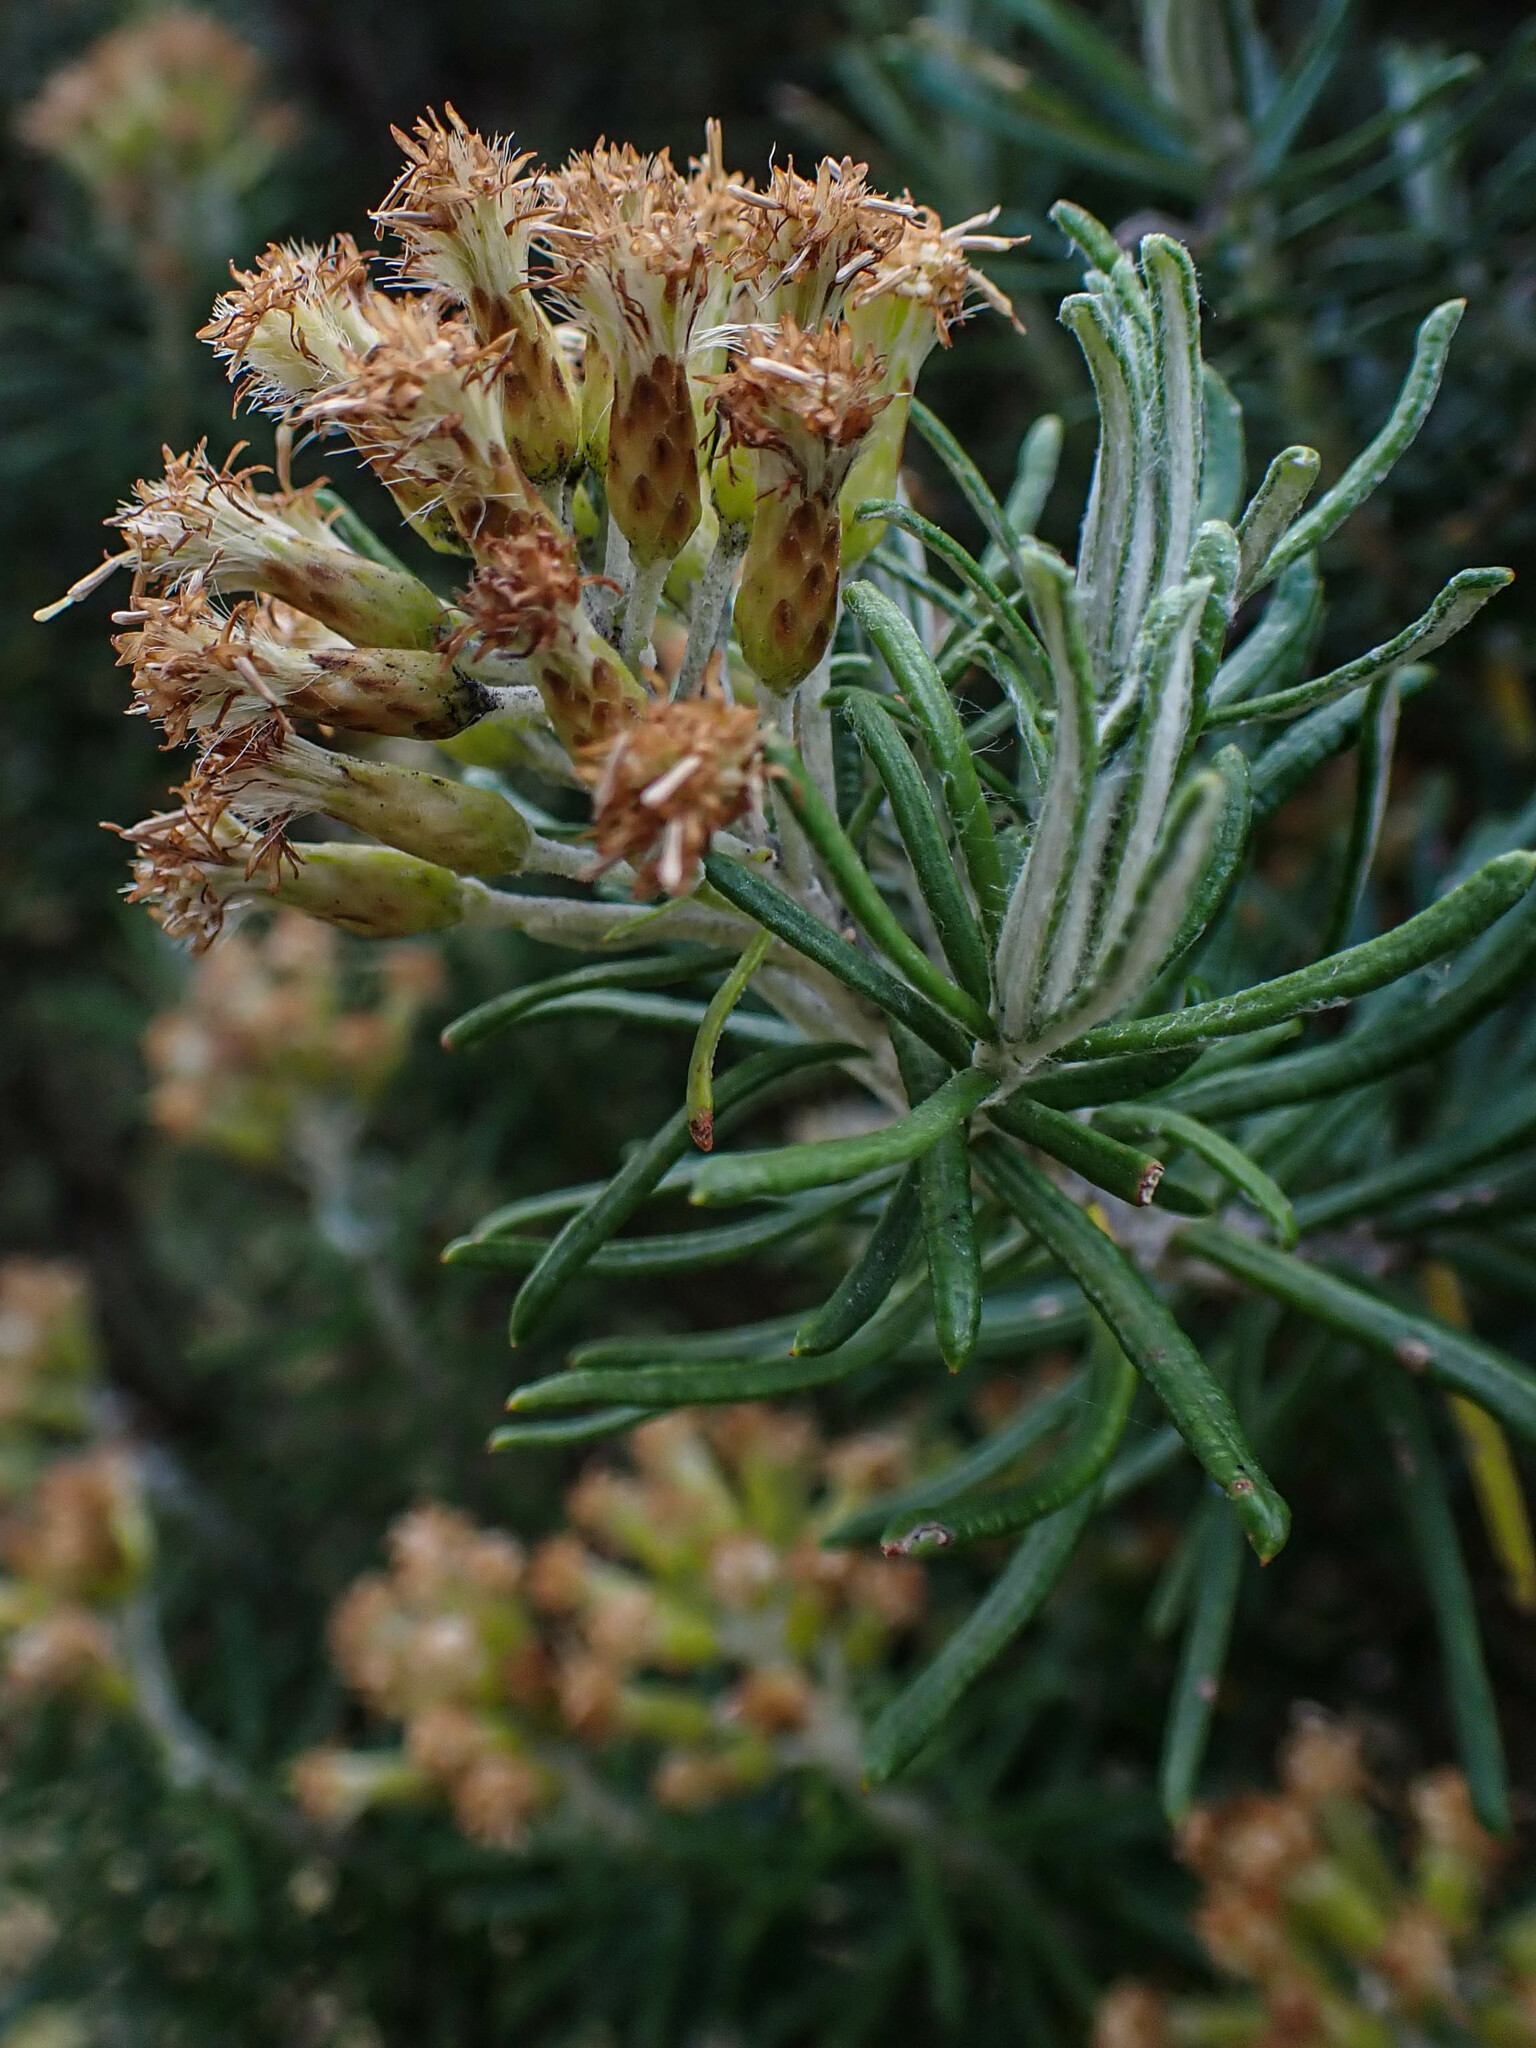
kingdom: Plantae
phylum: Tracheophyta
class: Magnoliopsida
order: Asterales
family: Asteraceae
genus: Linochilus
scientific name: Linochilus rosmarinifolius
